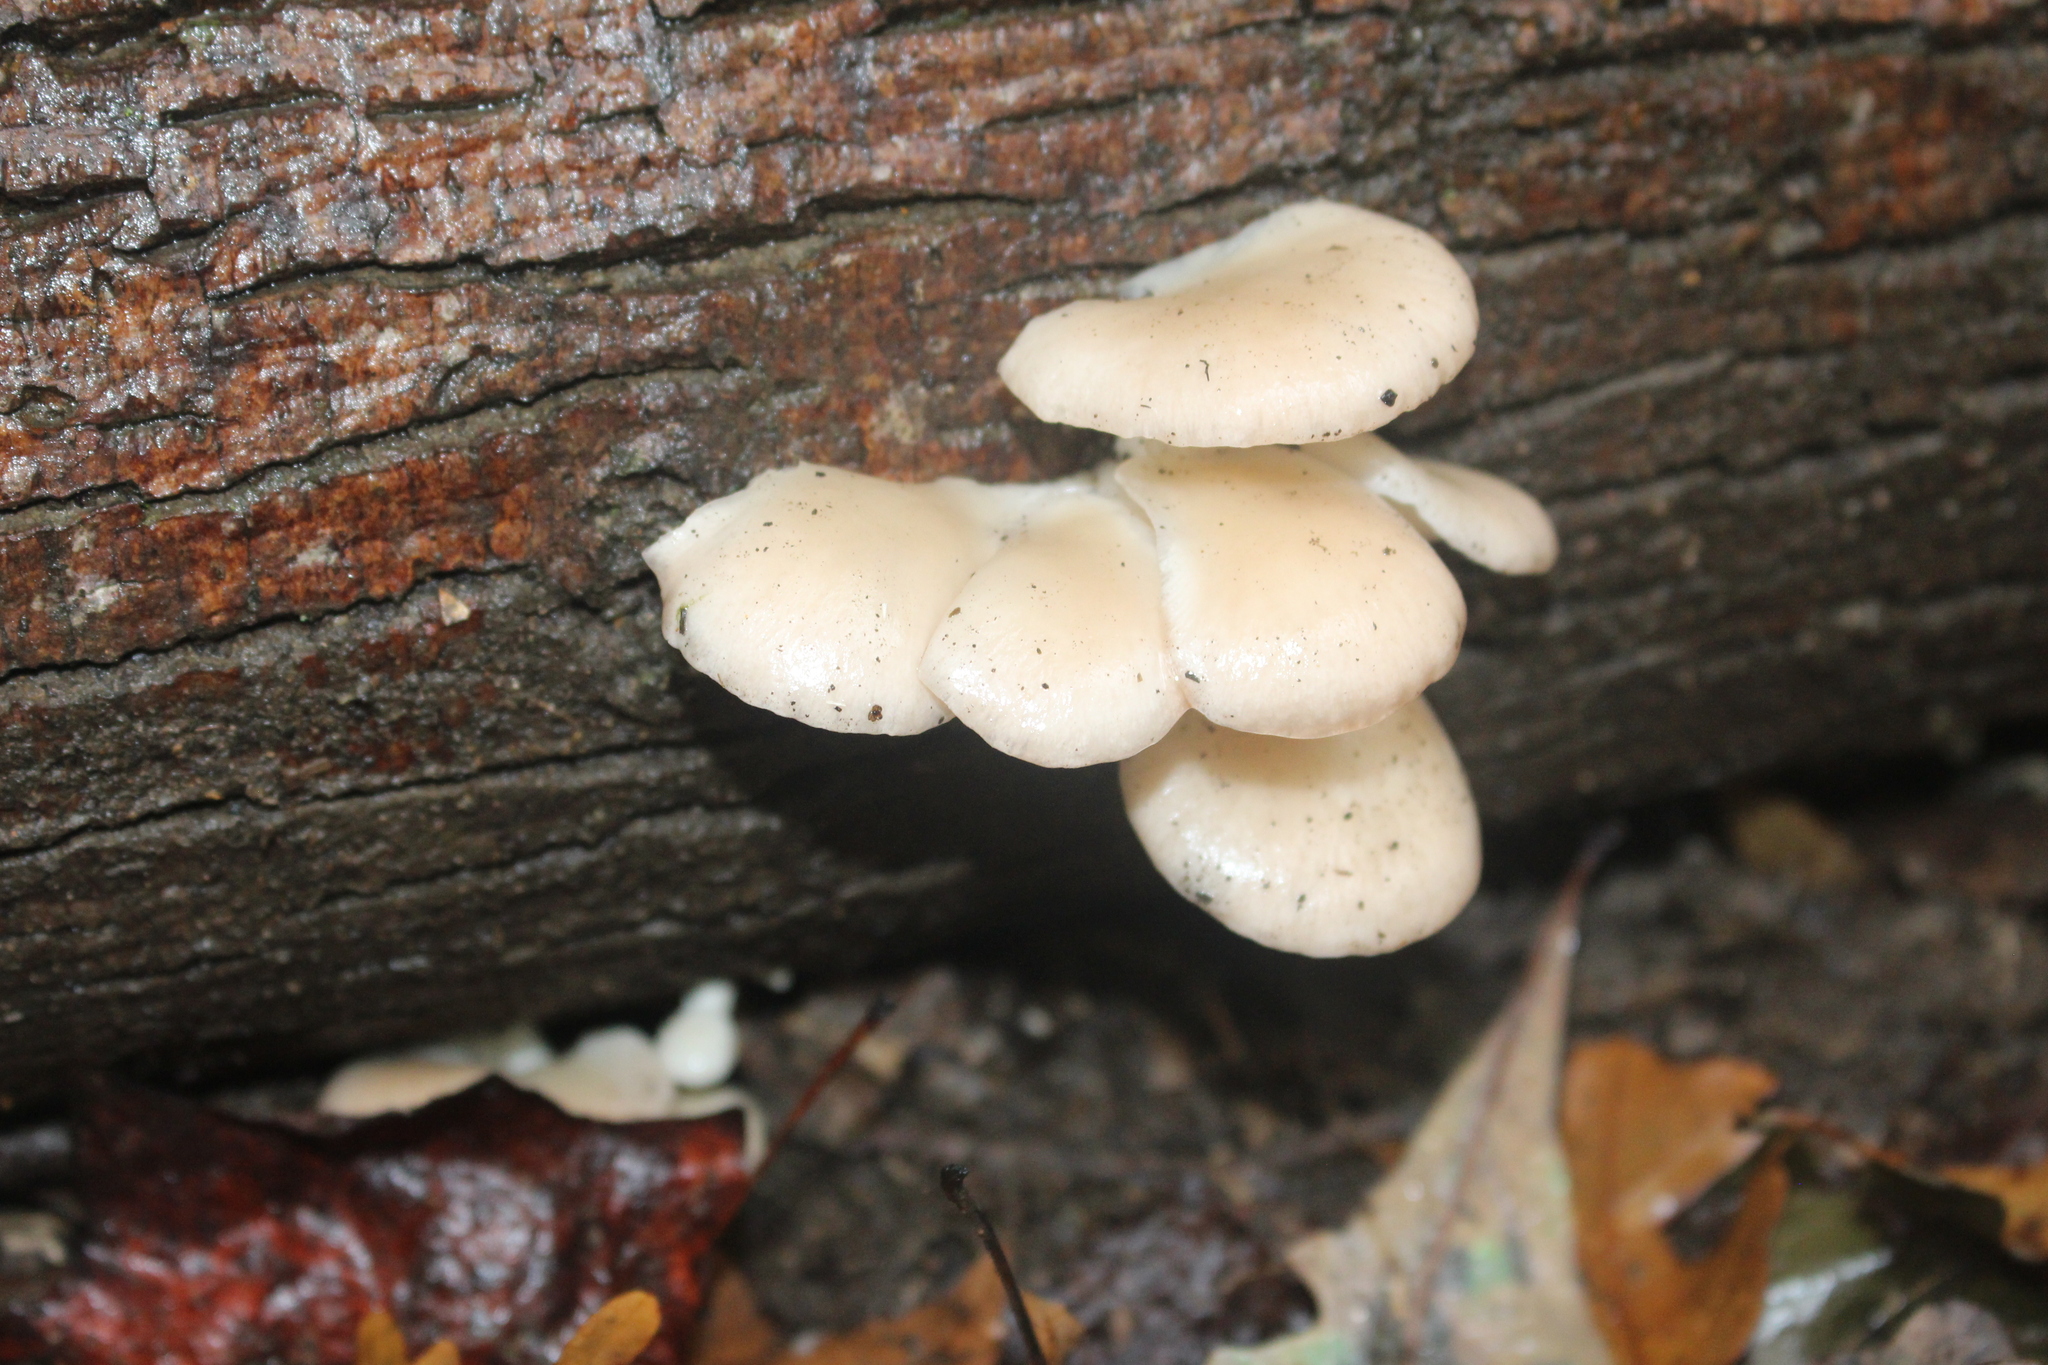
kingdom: Fungi
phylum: Basidiomycota
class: Agaricomycetes
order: Agaricales
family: Pleurotaceae
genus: Pleurotus
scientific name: Pleurotus pulmonarius
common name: Pale oyster
